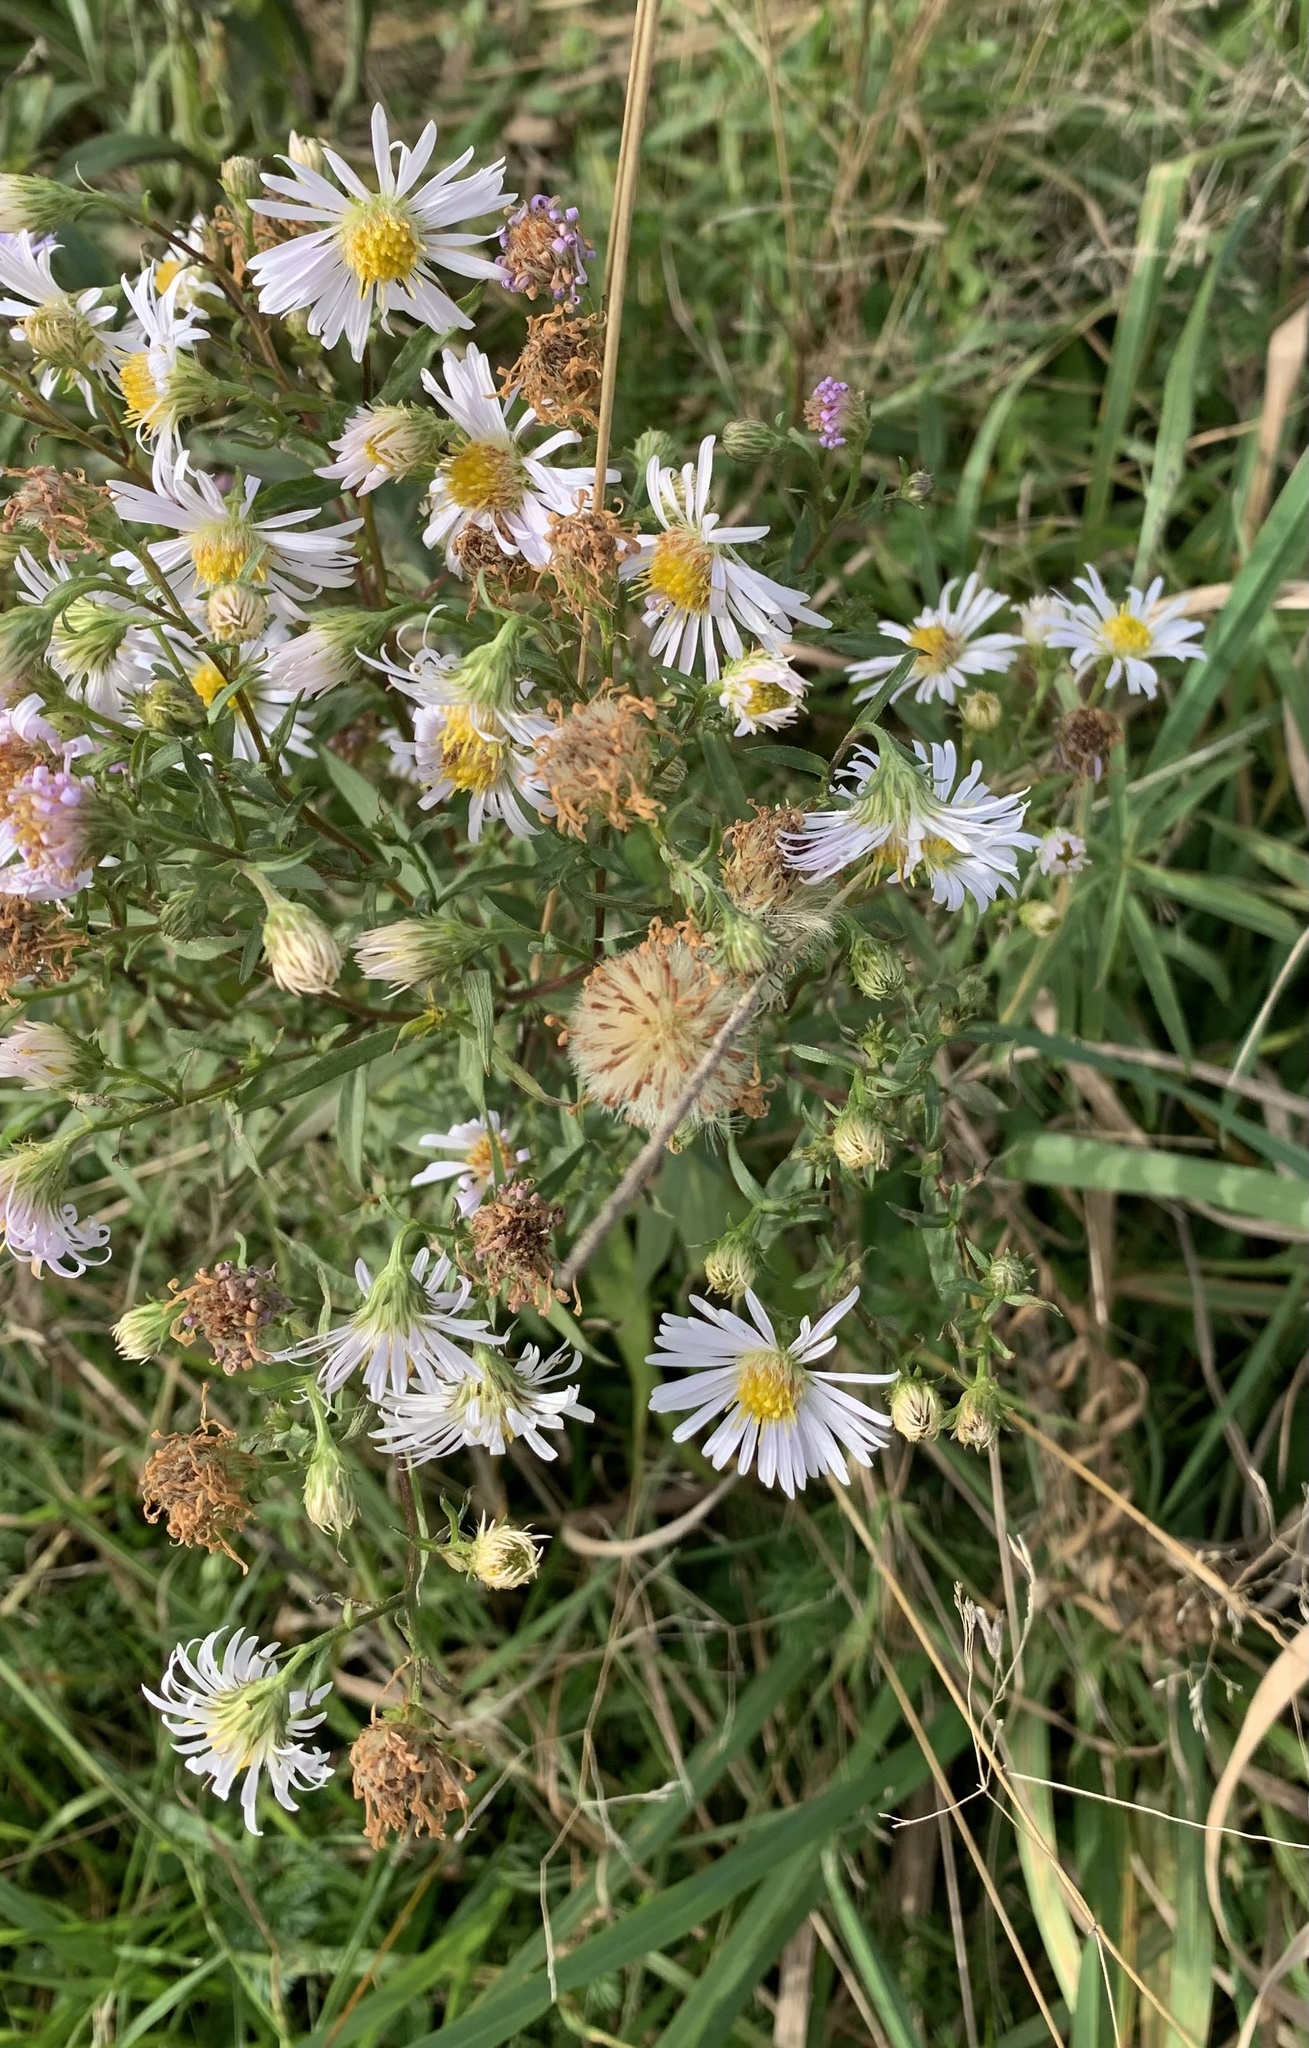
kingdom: Plantae
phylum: Tracheophyta
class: Magnoliopsida
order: Asterales
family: Asteraceae
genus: Symphyotrichum
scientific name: Symphyotrichum lanceolatum
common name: Panicled aster
